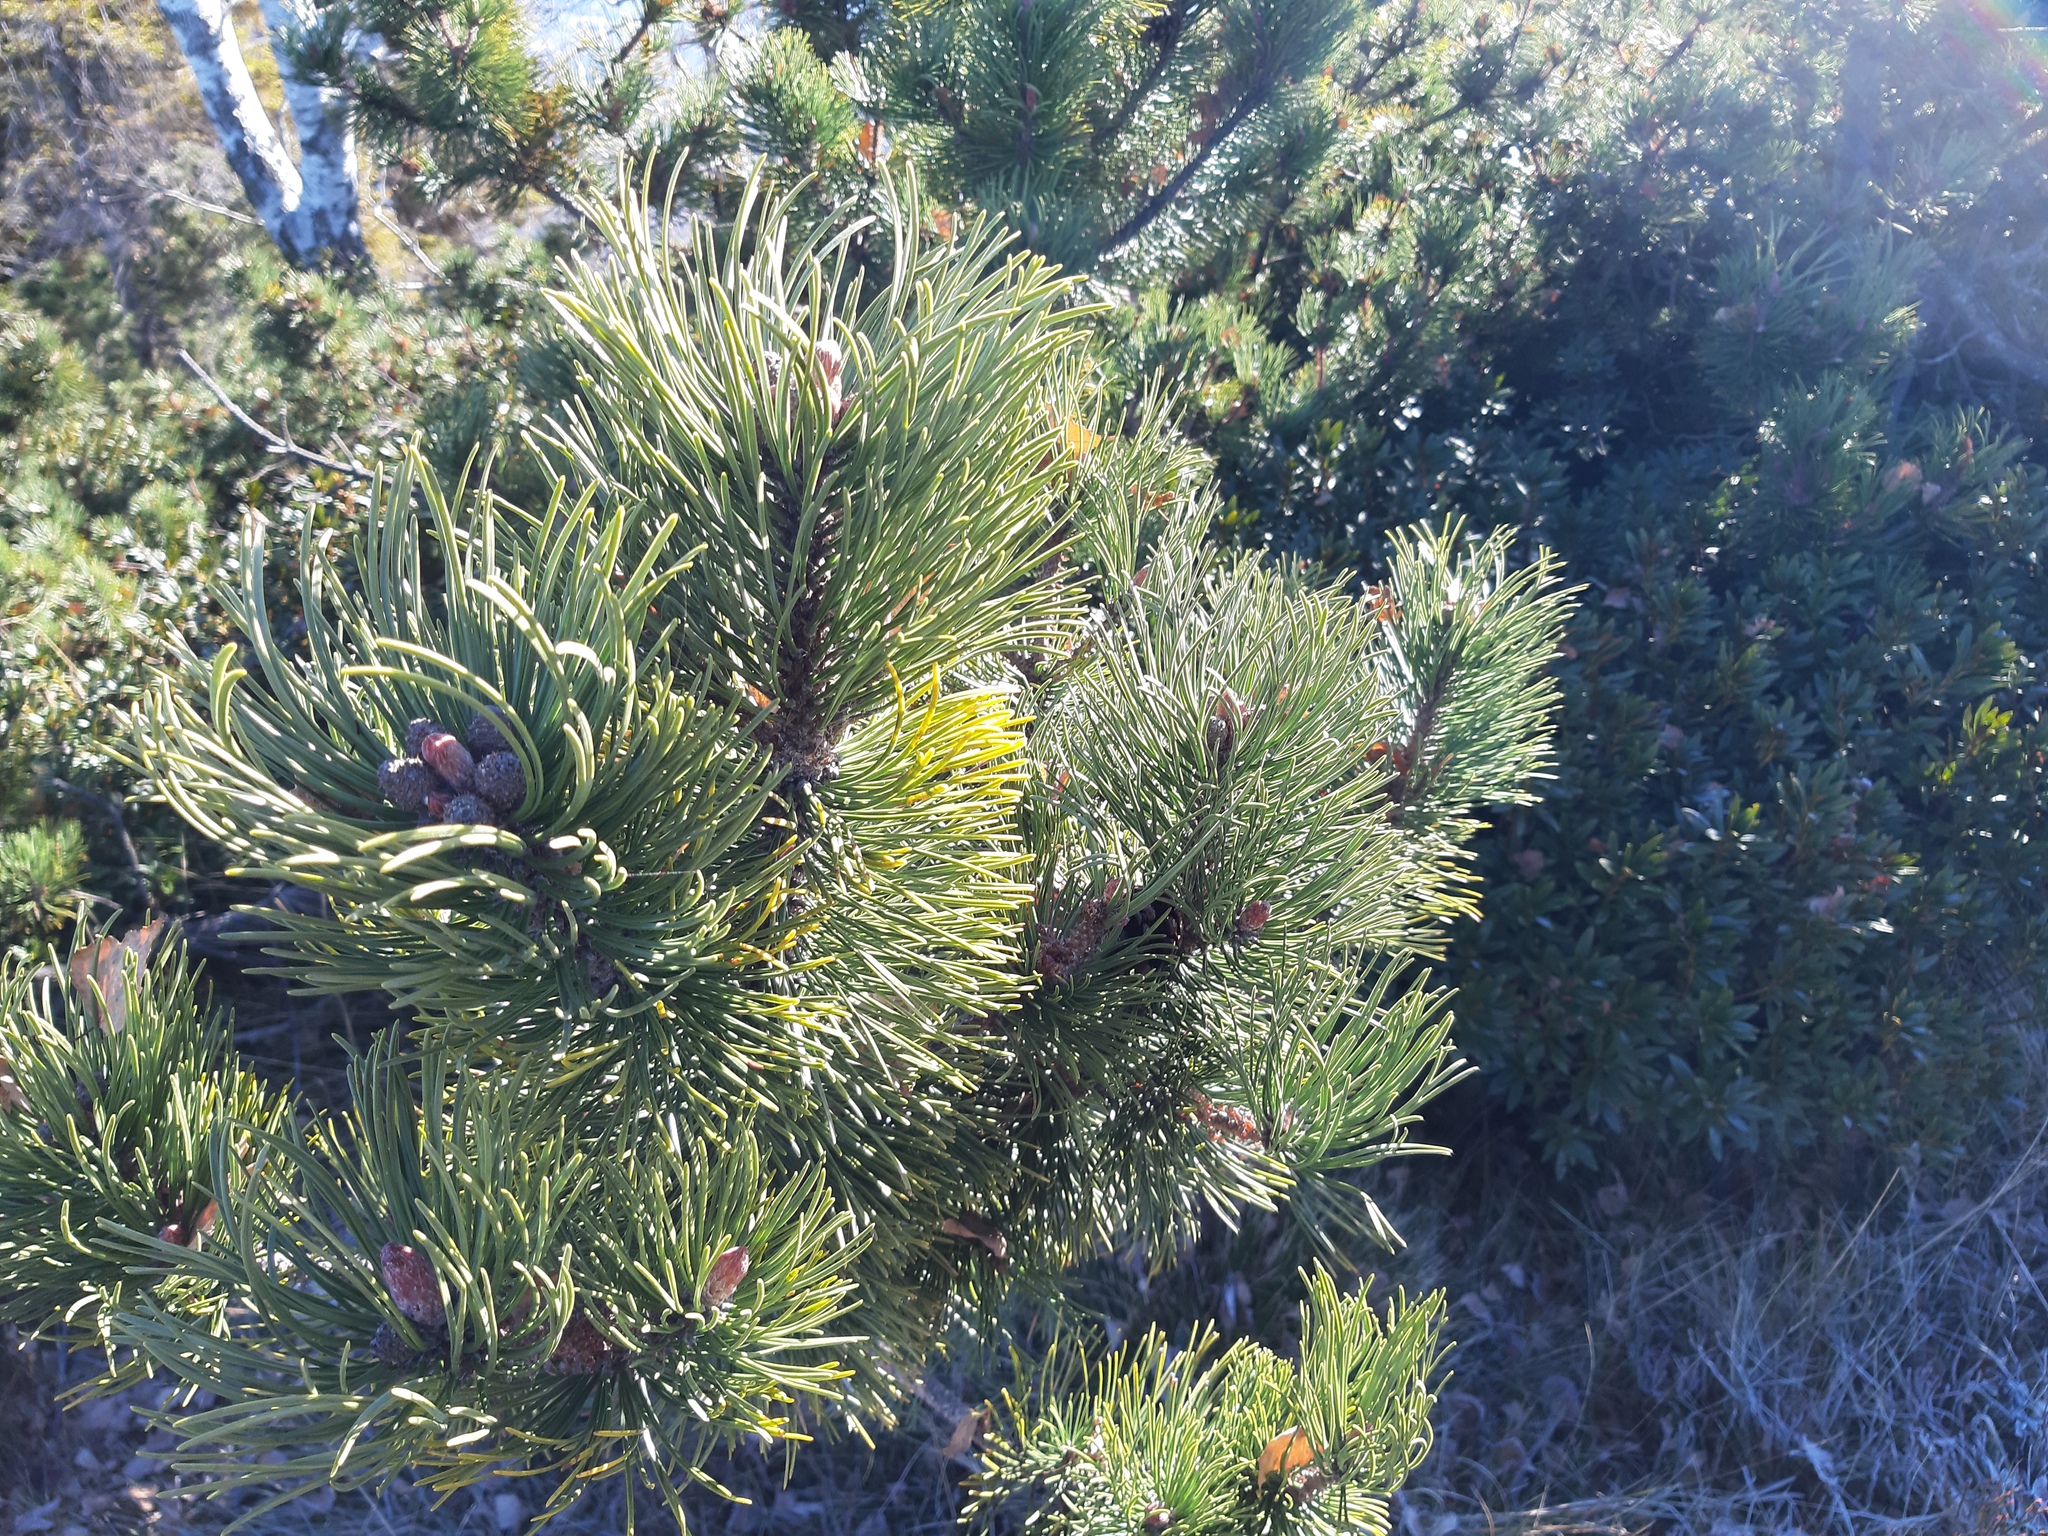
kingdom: Plantae
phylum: Tracheophyta
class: Pinopsida
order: Pinales
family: Pinaceae
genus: Pinus
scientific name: Pinus mugo
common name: Mugo pine
